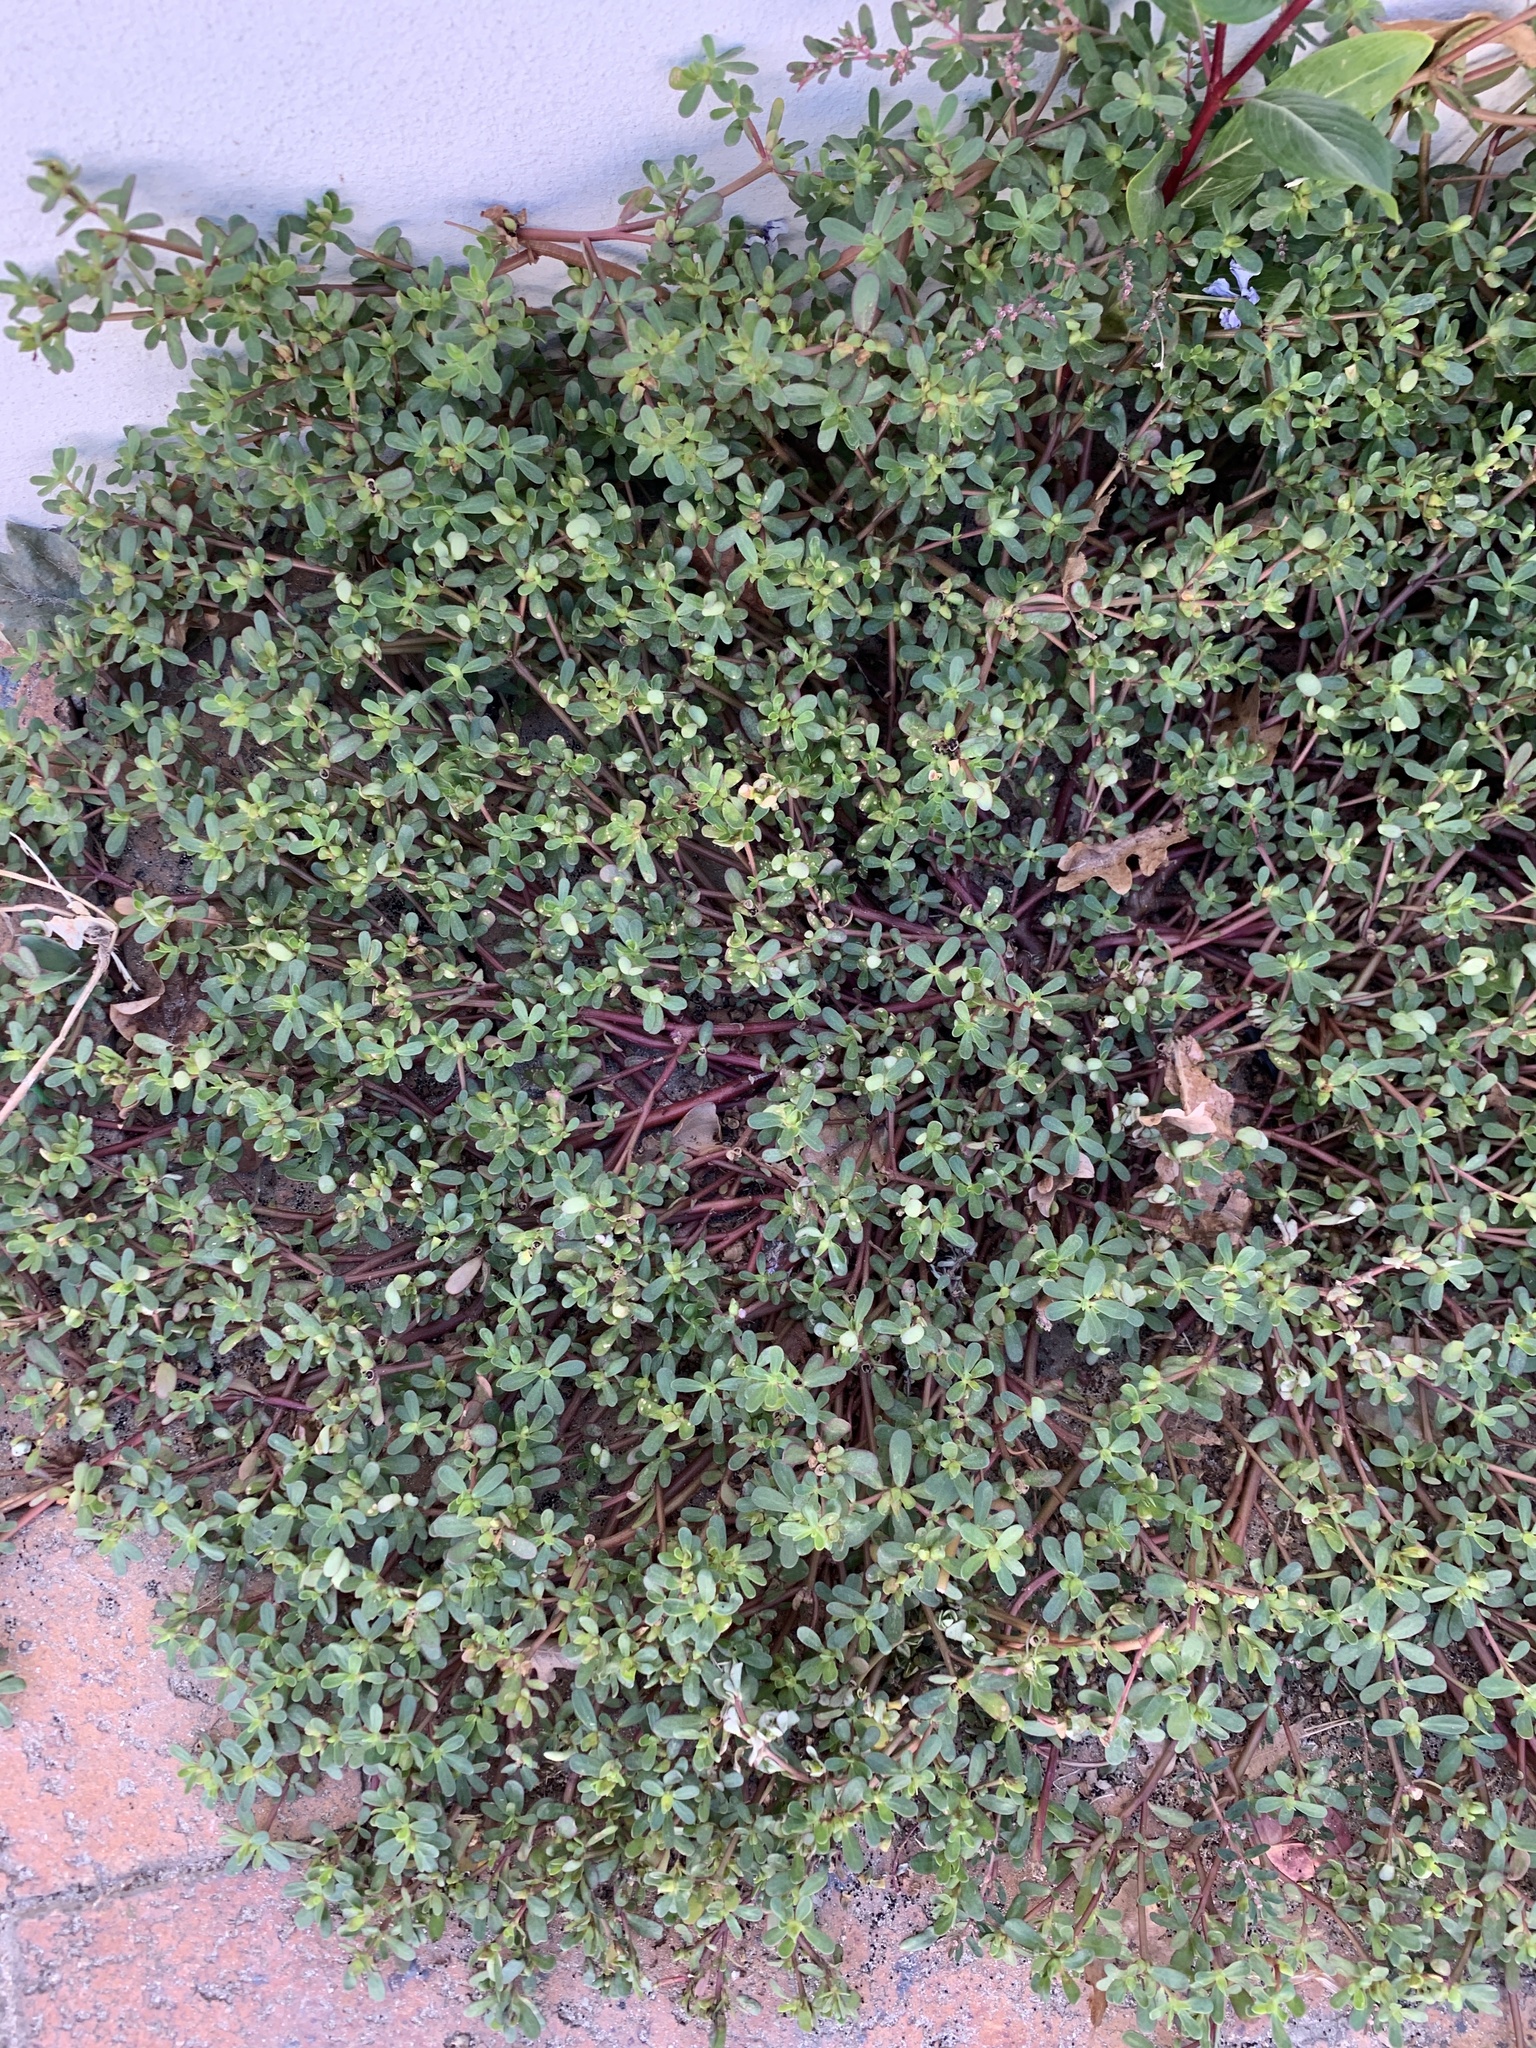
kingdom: Plantae
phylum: Tracheophyta
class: Magnoliopsida
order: Caryophyllales
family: Portulacaceae
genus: Portulaca
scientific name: Portulaca oleracea
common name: Common purslane
